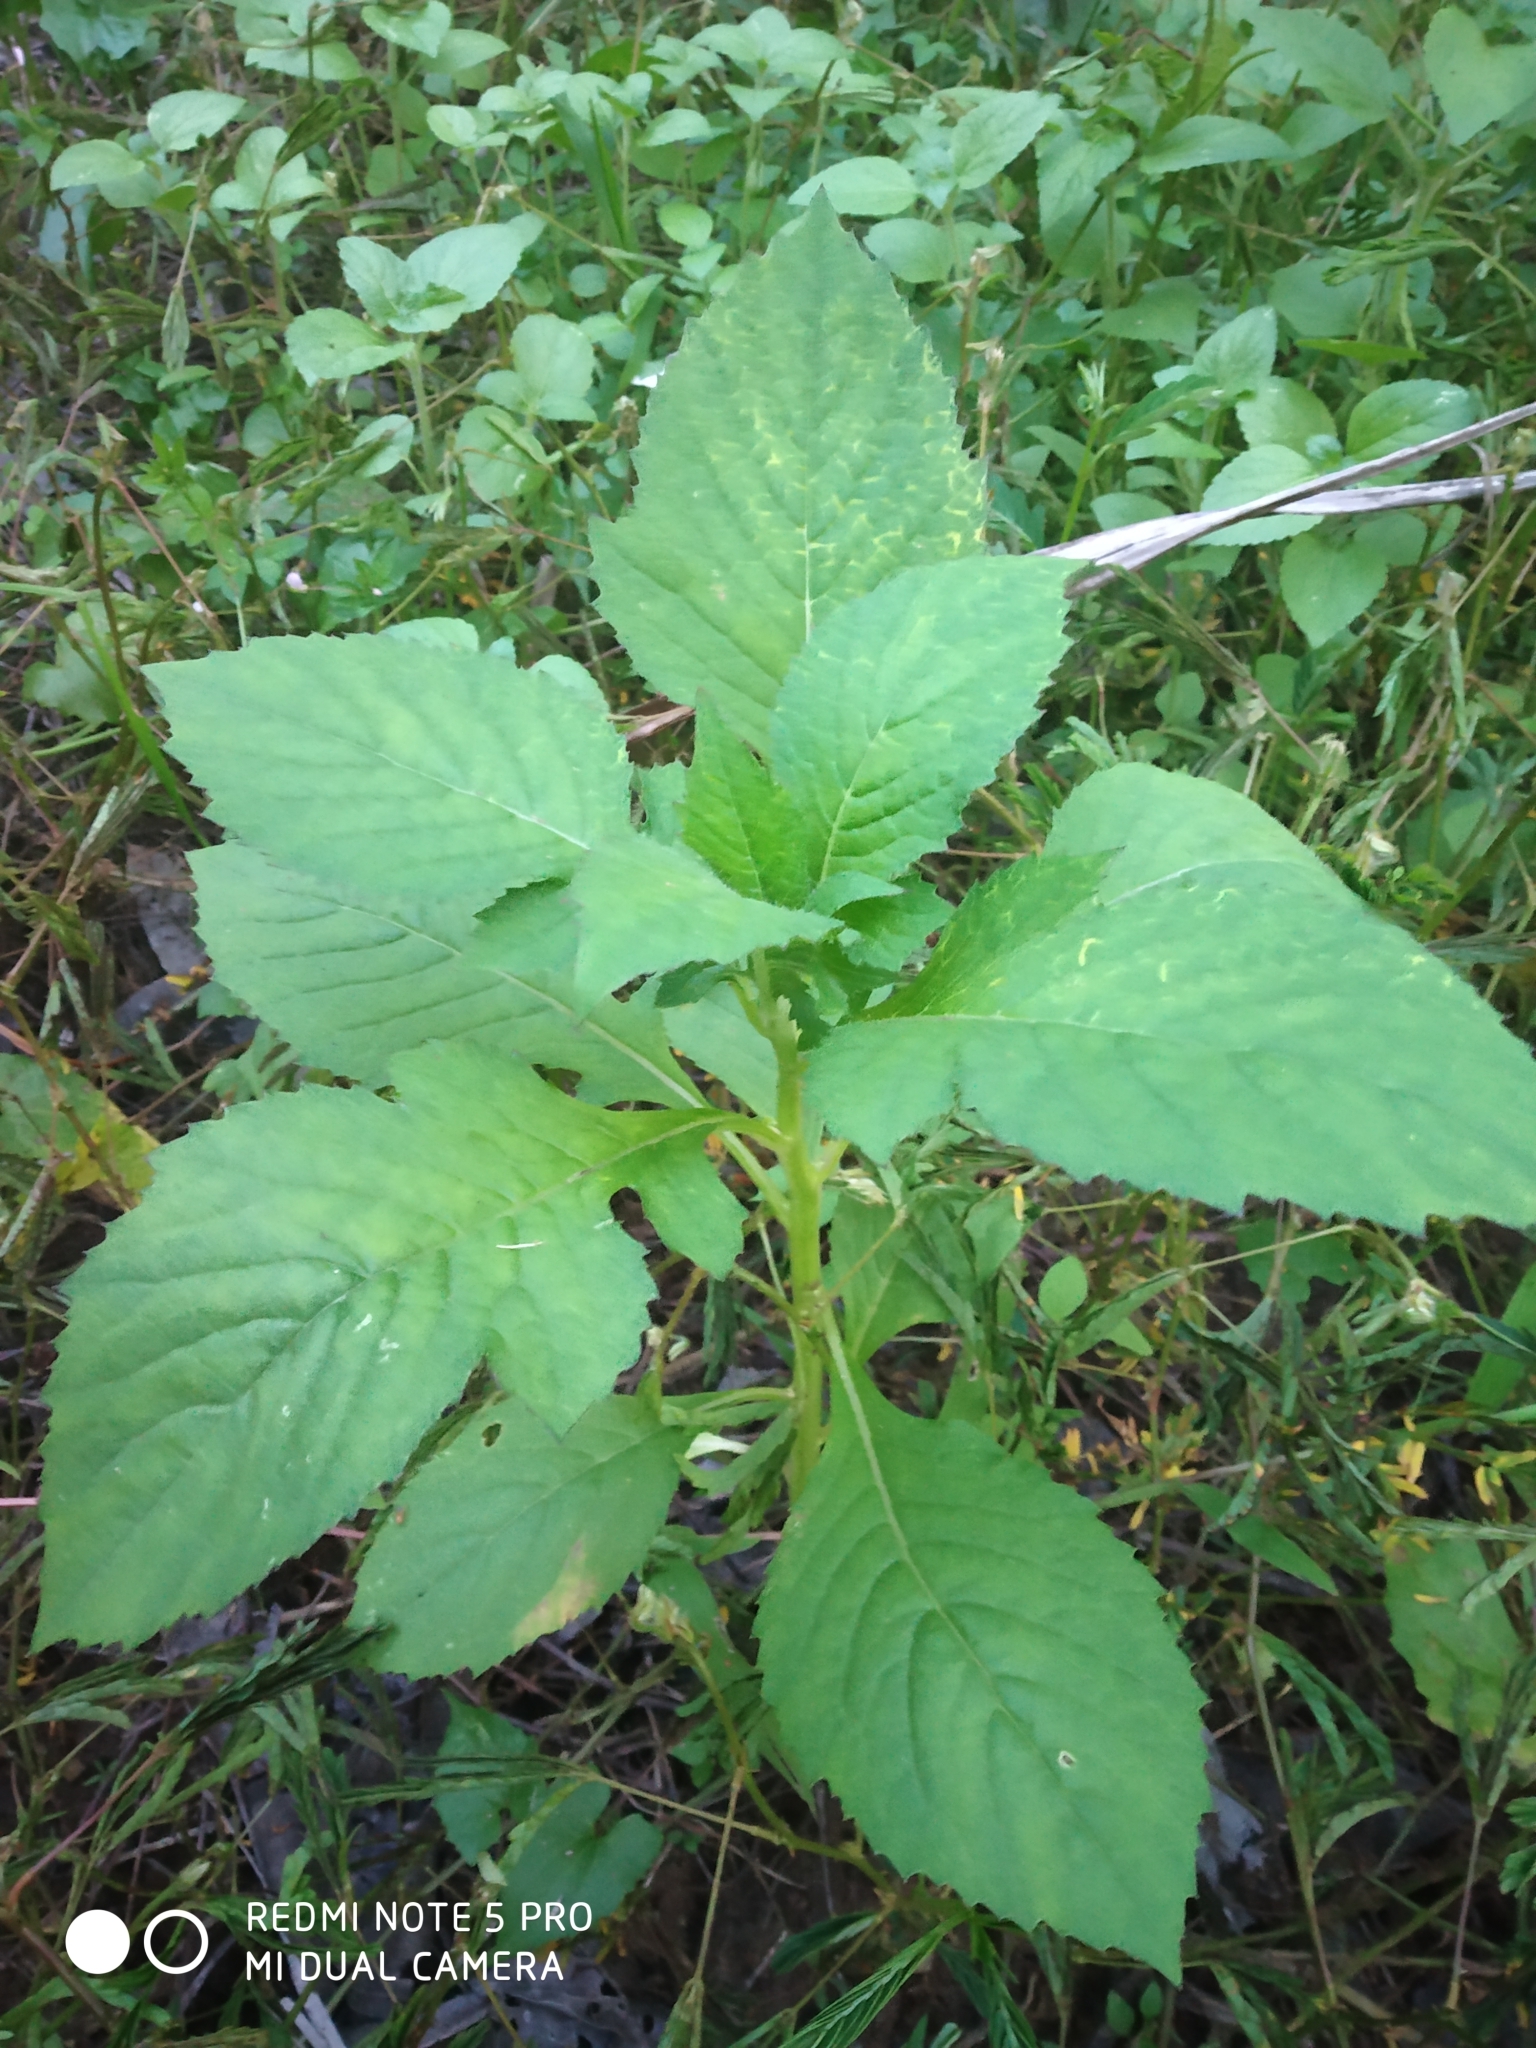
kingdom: Plantae
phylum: Tracheophyta
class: Magnoliopsida
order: Asterales
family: Asteraceae
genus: Crassocephalum
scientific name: Crassocephalum crepidioides
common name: Redflower ragleaf
